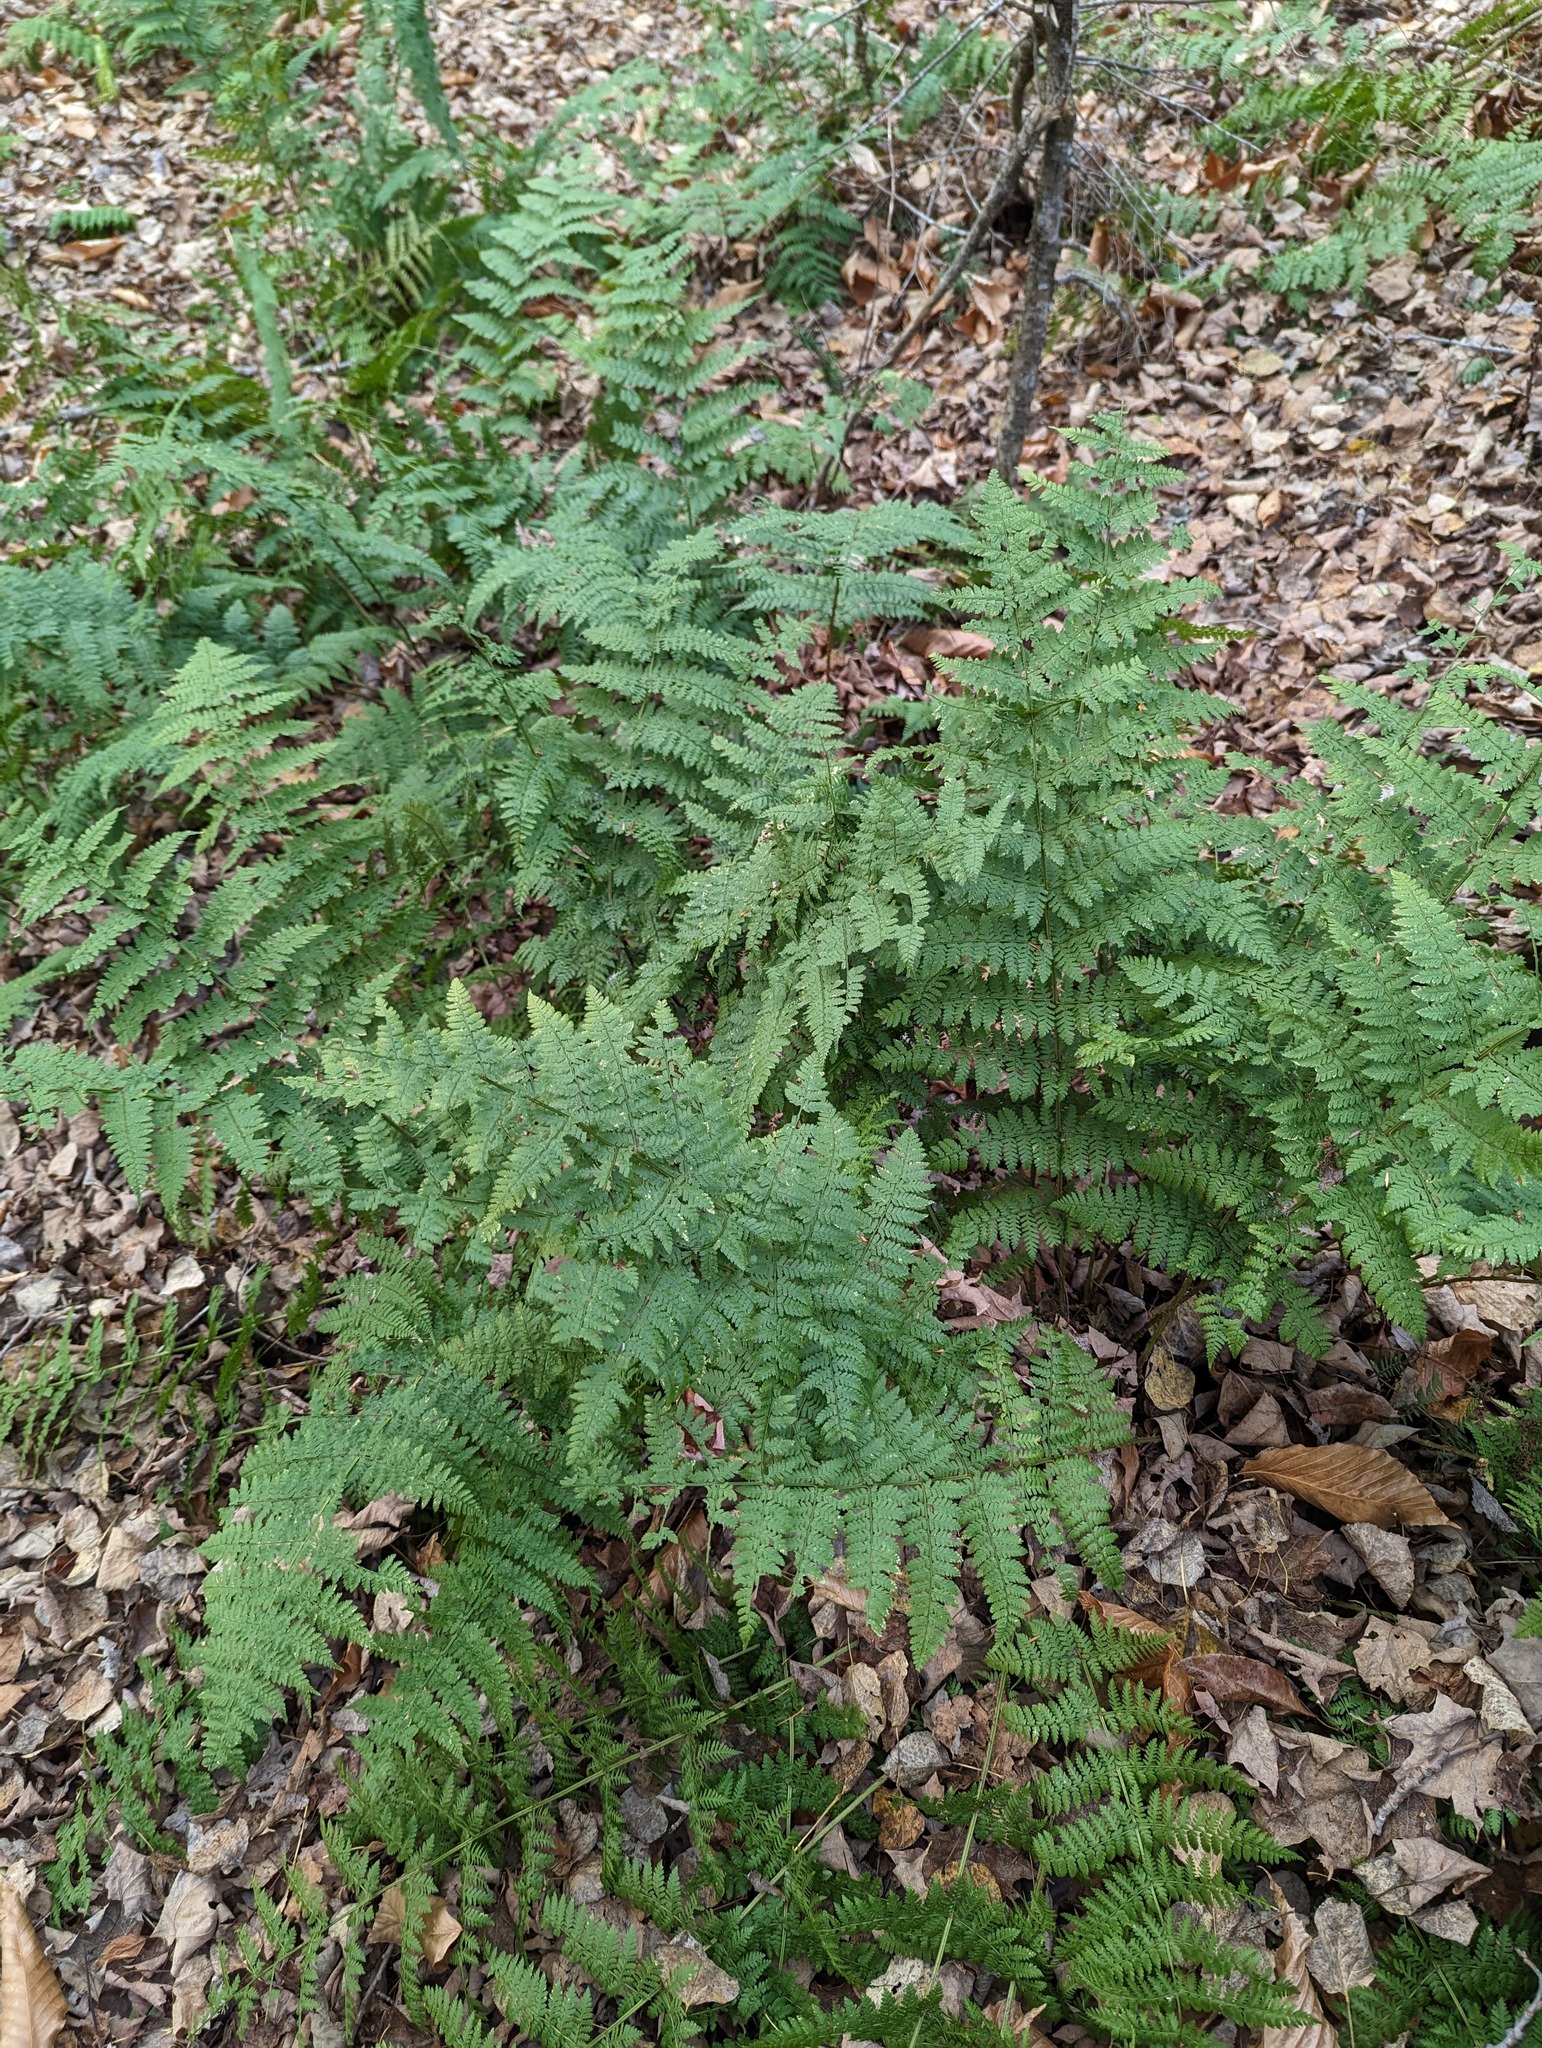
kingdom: Plantae
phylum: Tracheophyta
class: Polypodiopsida
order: Polypodiales
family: Dryopteridaceae
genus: Dryopteris
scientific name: Dryopteris intermedia
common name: Evergreen wood fern
